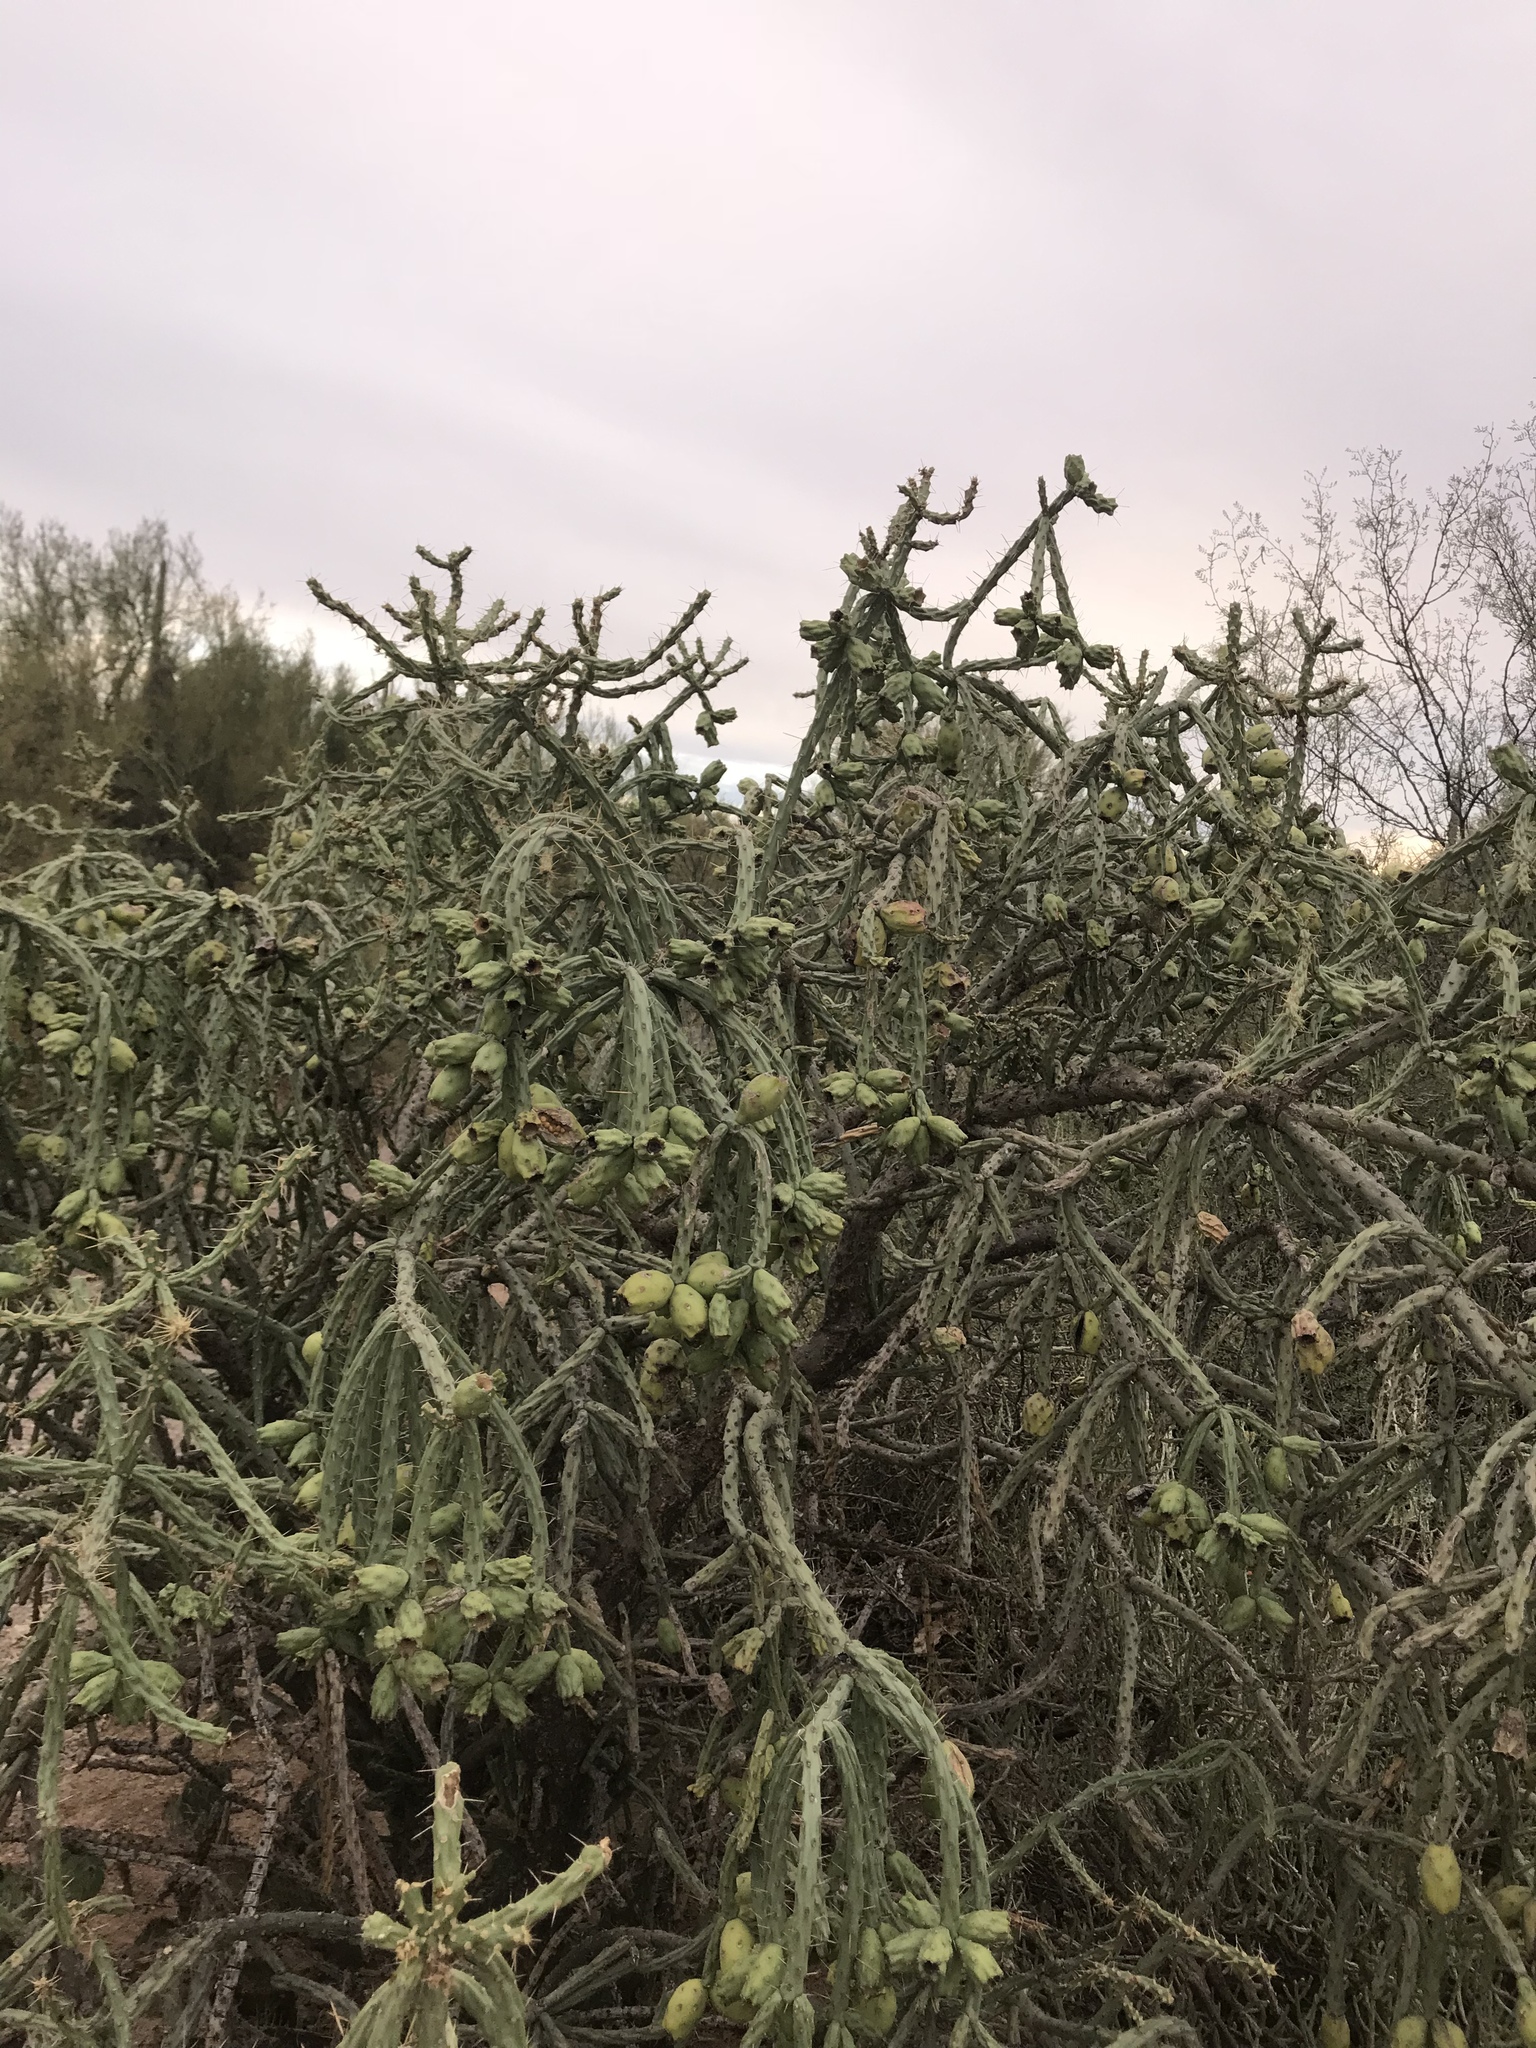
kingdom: Plantae
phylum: Tracheophyta
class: Magnoliopsida
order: Caryophyllales
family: Cactaceae
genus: Cylindropuntia
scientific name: Cylindropuntia thurberi
